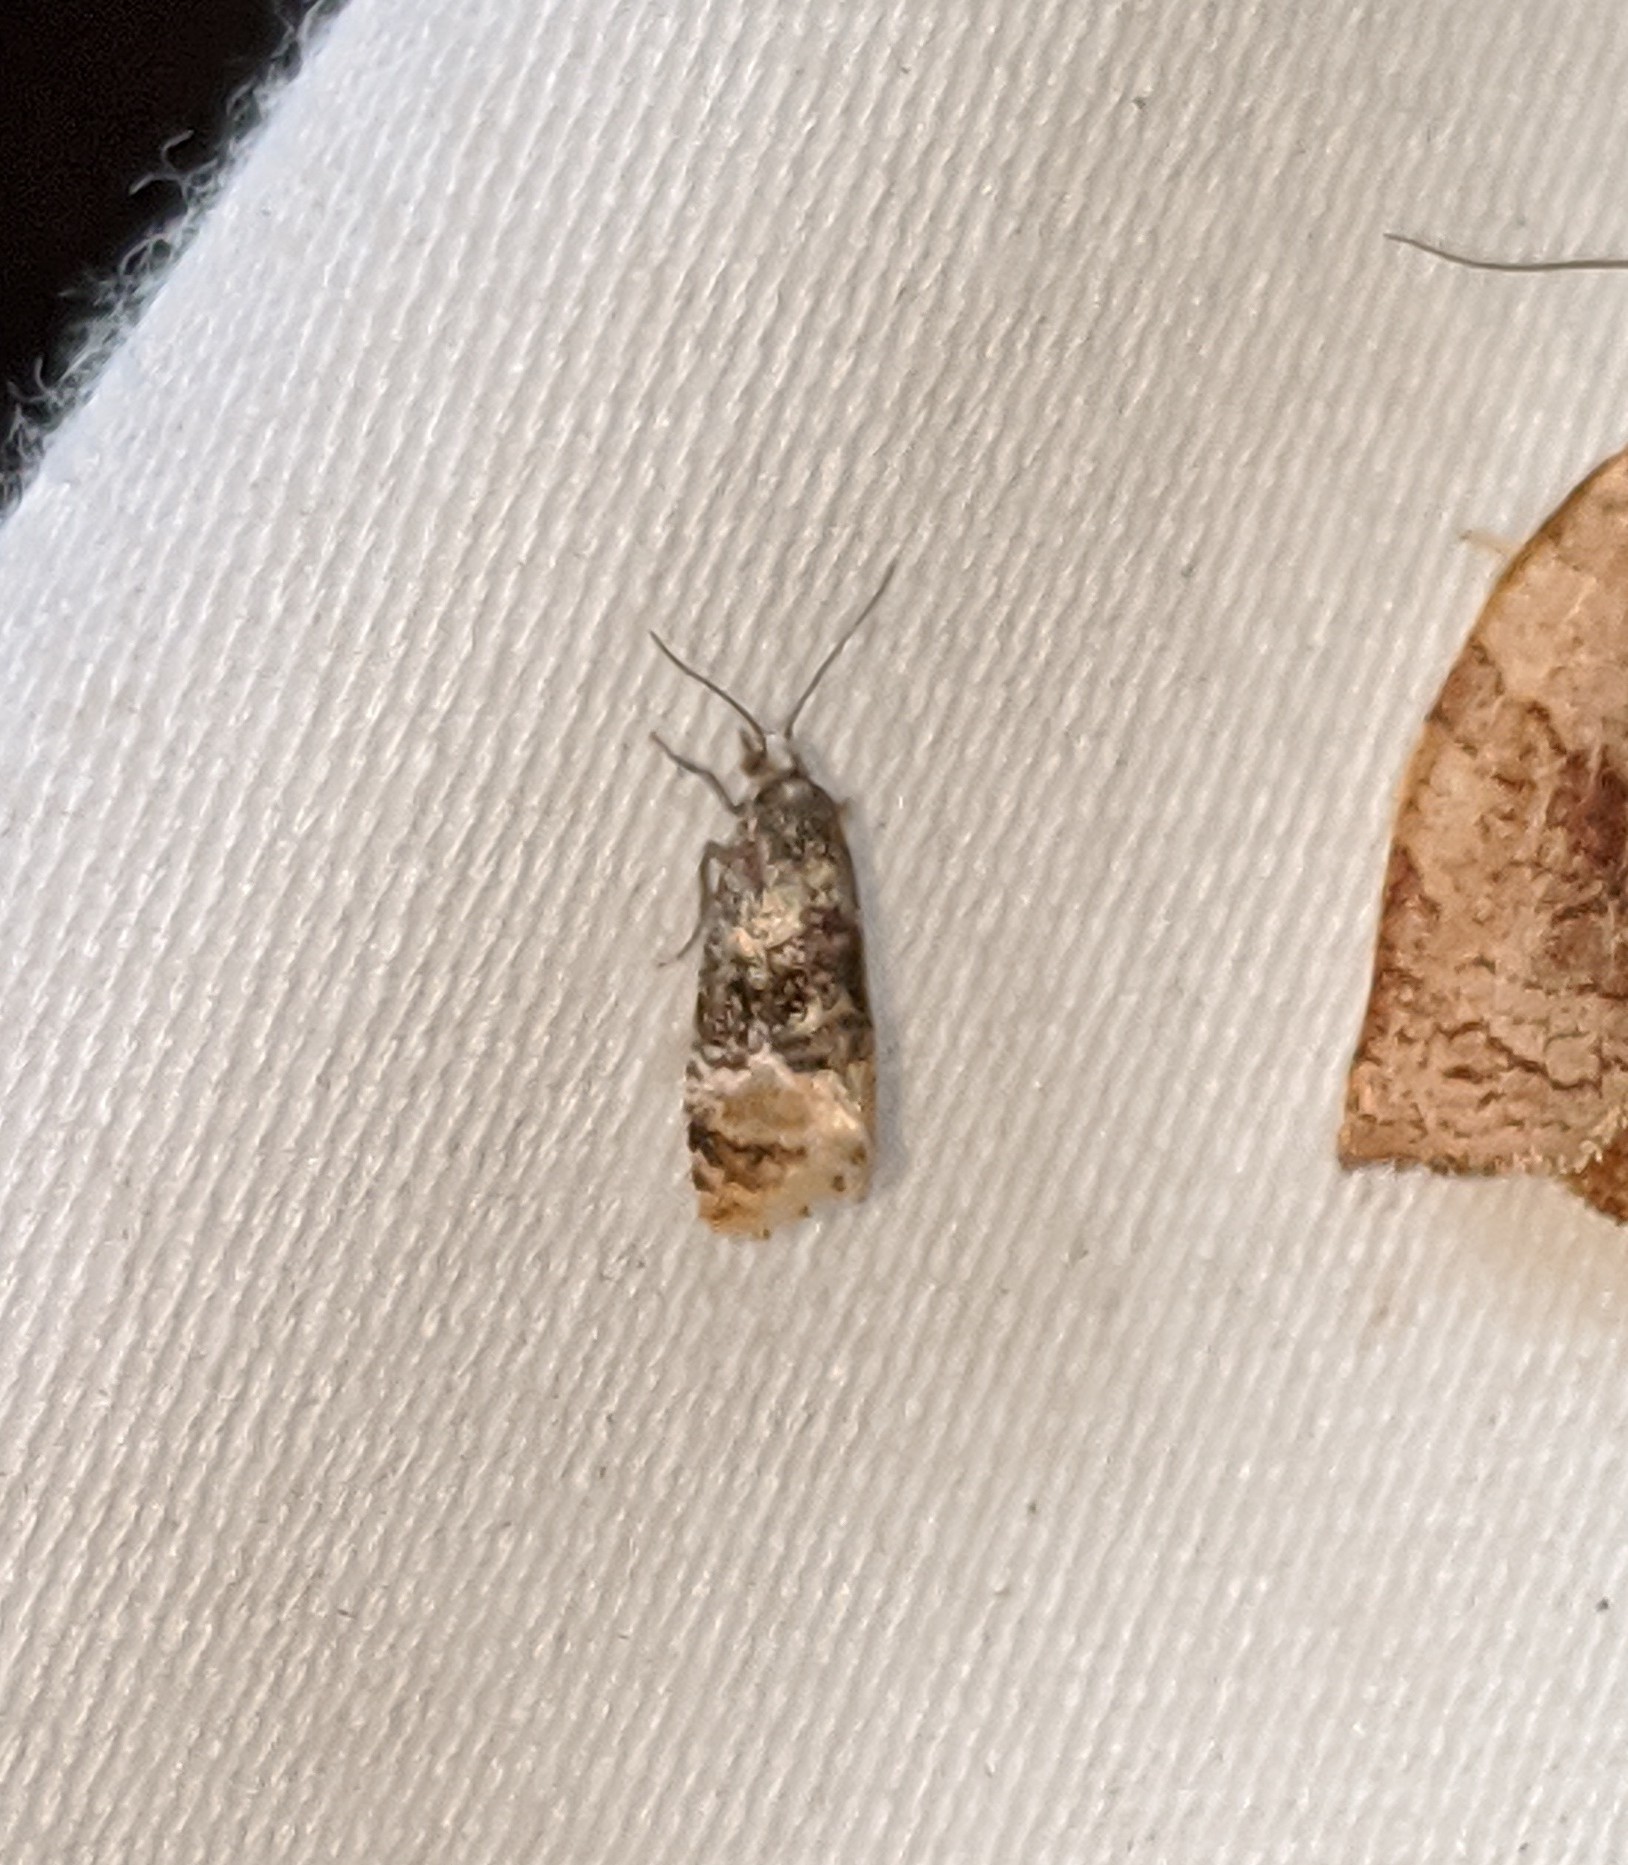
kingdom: Animalia
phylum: Arthropoda
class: Insecta
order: Lepidoptera
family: Tortricidae
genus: Thyraylia
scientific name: Thyraylia nana
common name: Birch conch
